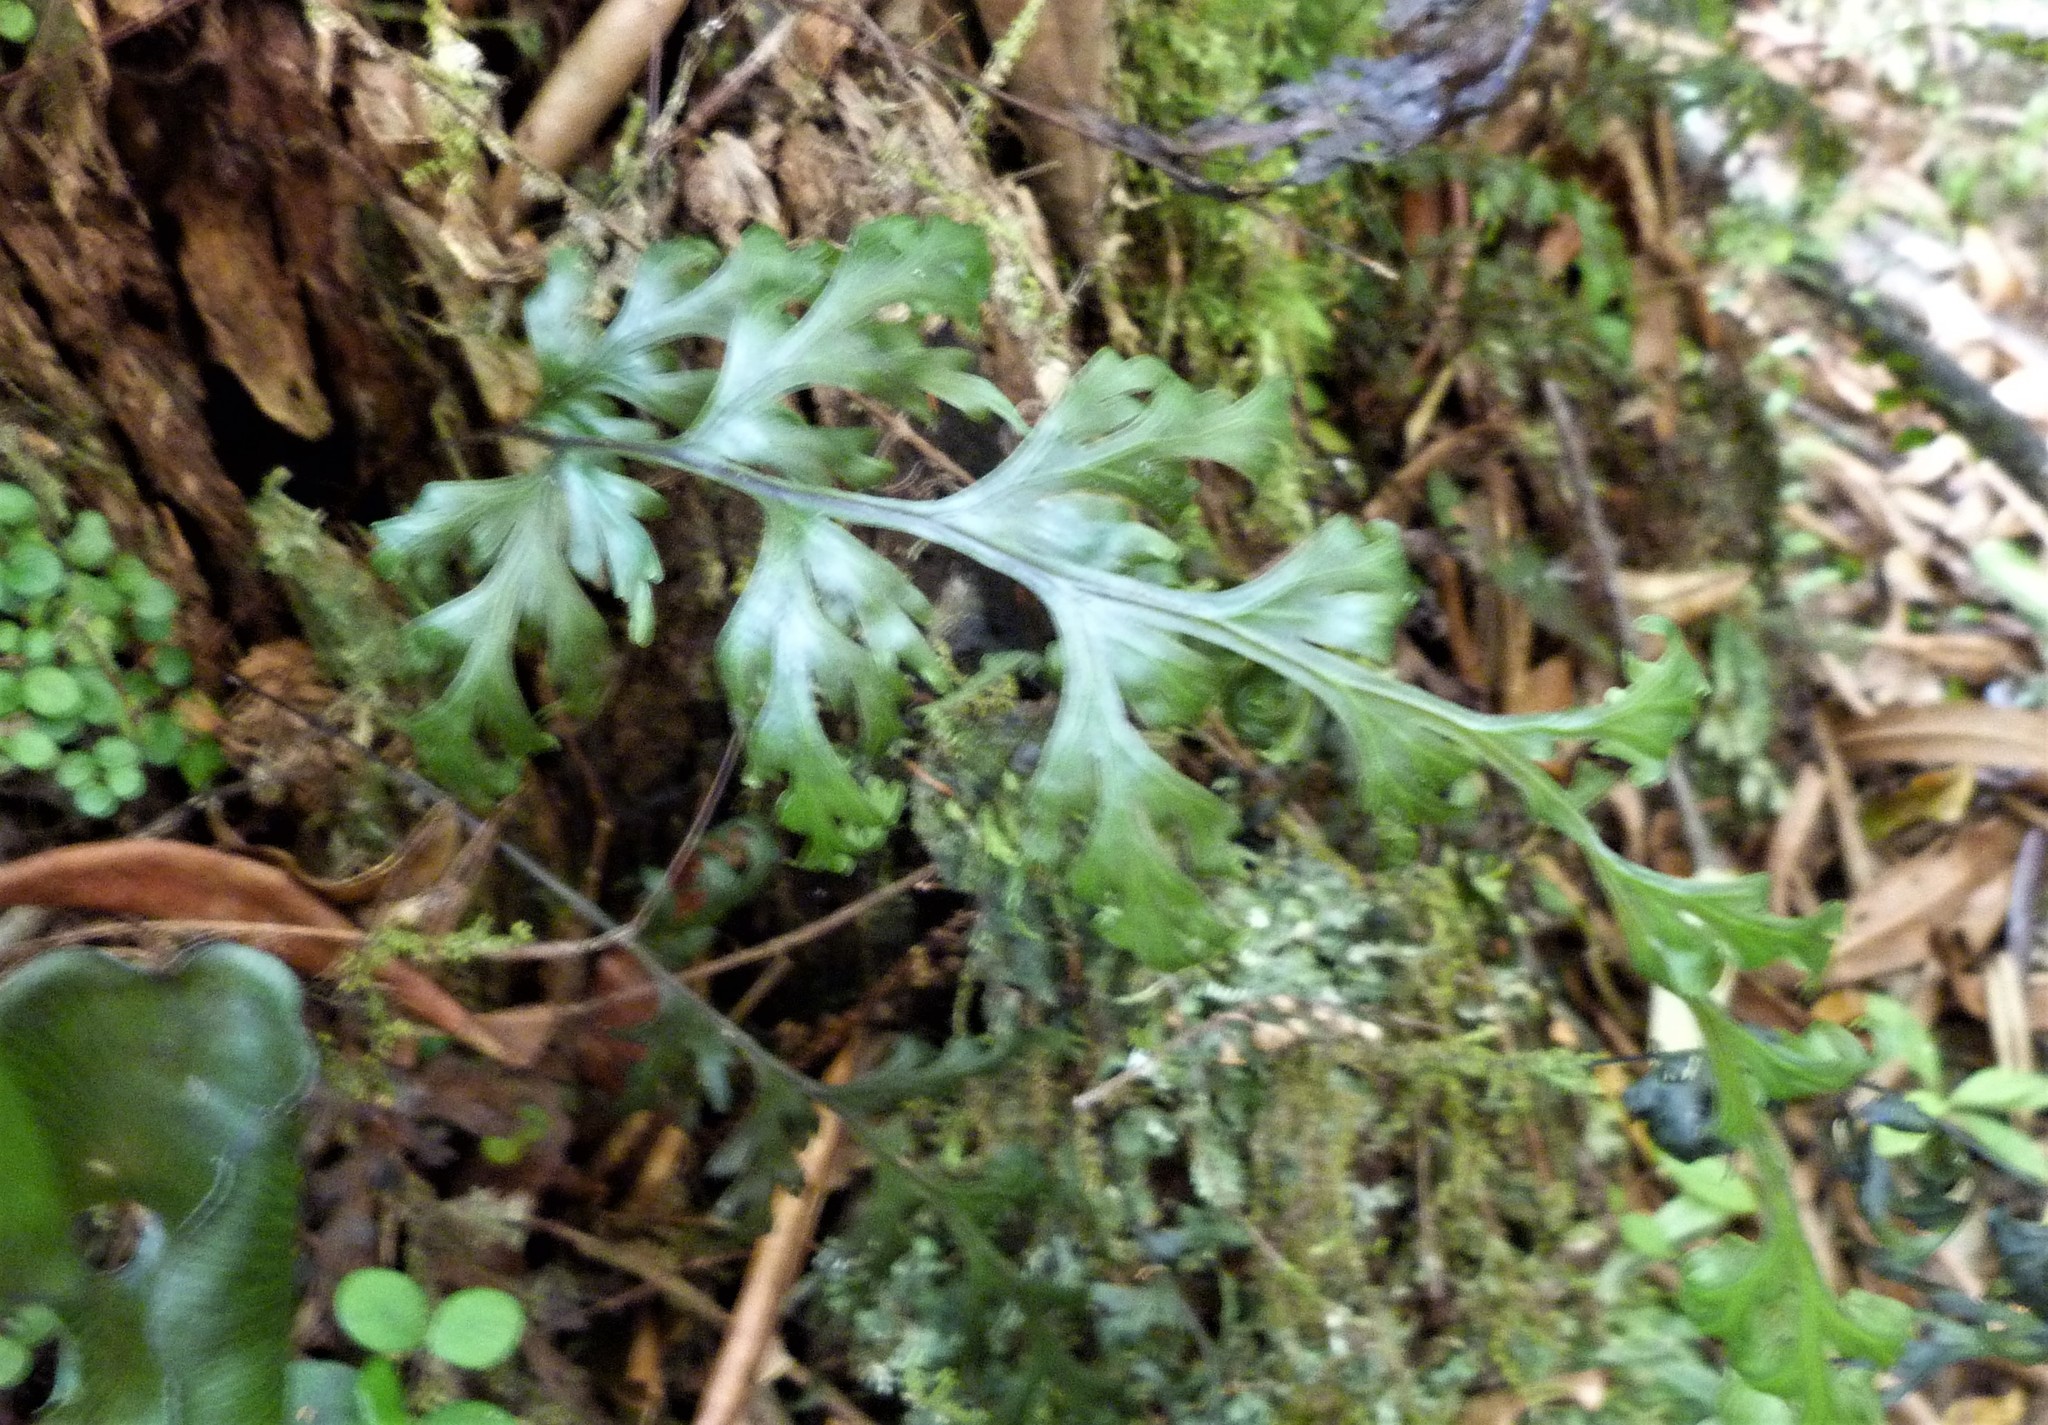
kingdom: Plantae
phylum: Tracheophyta
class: Polypodiopsida
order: Hymenophyllales
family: Hymenophyllaceae
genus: Hymenophyllum
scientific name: Hymenophyllum dilatatum
